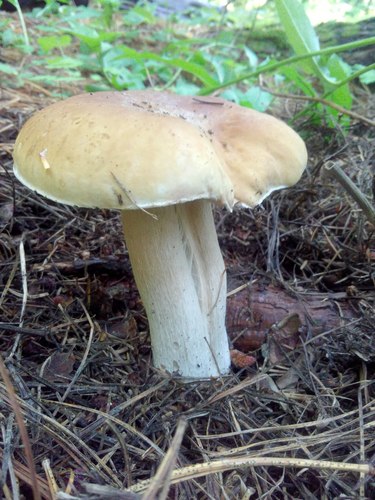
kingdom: Fungi
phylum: Basidiomycota
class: Agaricomycetes
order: Boletales
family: Boletaceae
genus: Boletus
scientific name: Boletus edulis
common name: Cep
